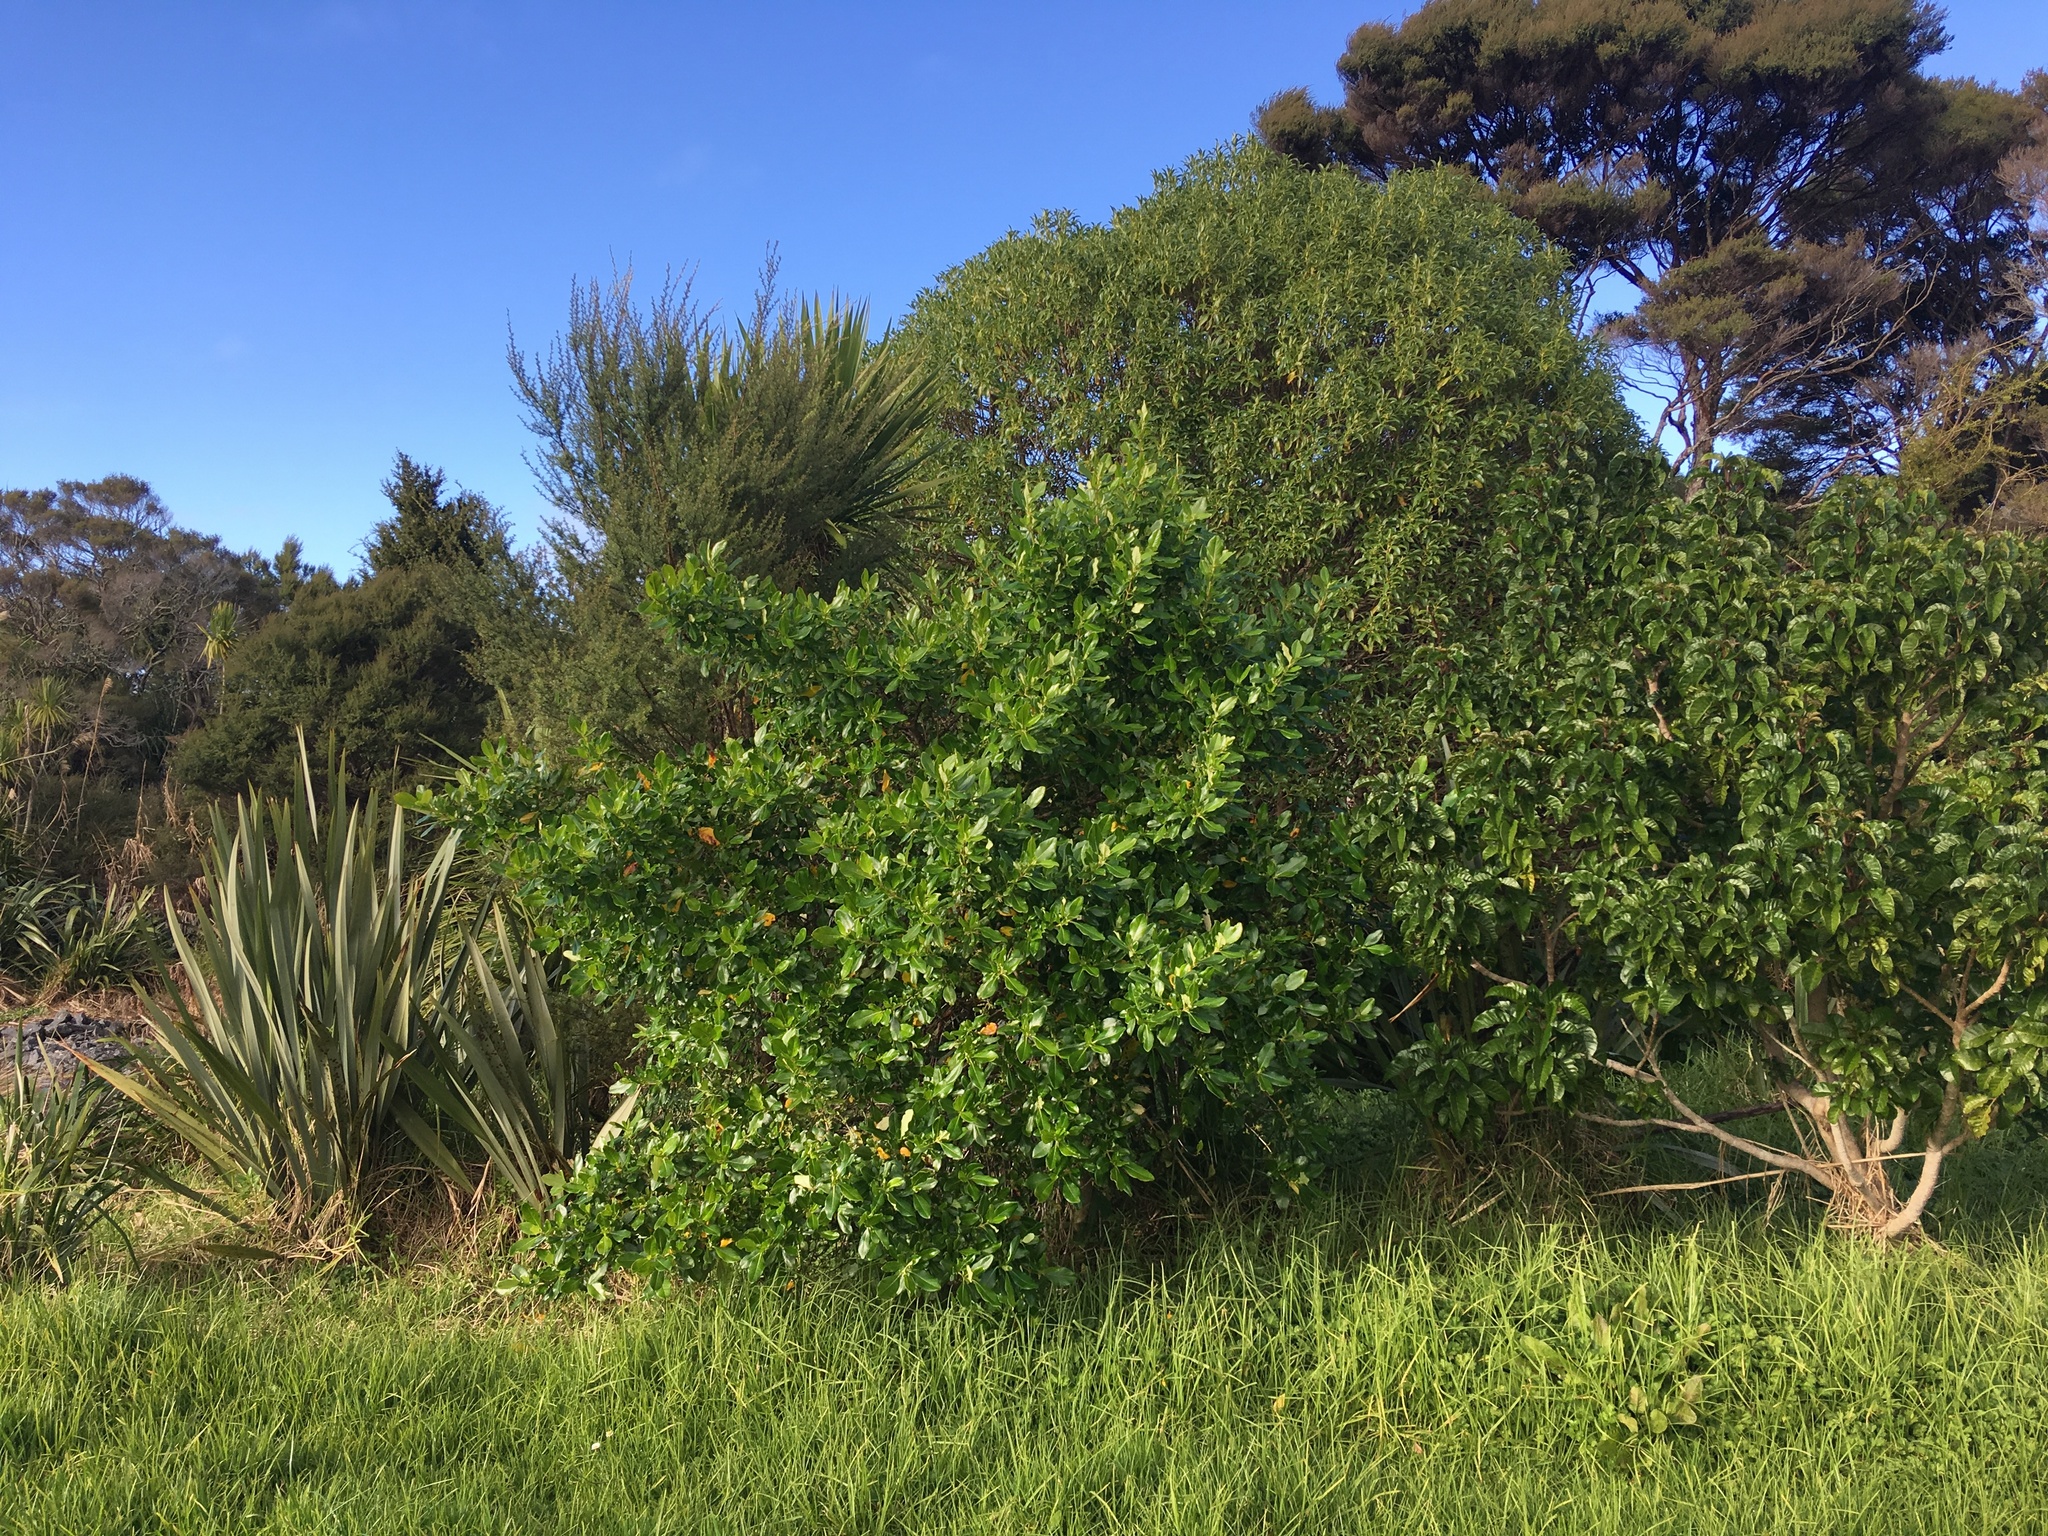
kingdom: Plantae
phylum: Tracheophyta
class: Magnoliopsida
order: Gentianales
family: Rubiaceae
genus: Coprosma
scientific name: Coprosma robusta
